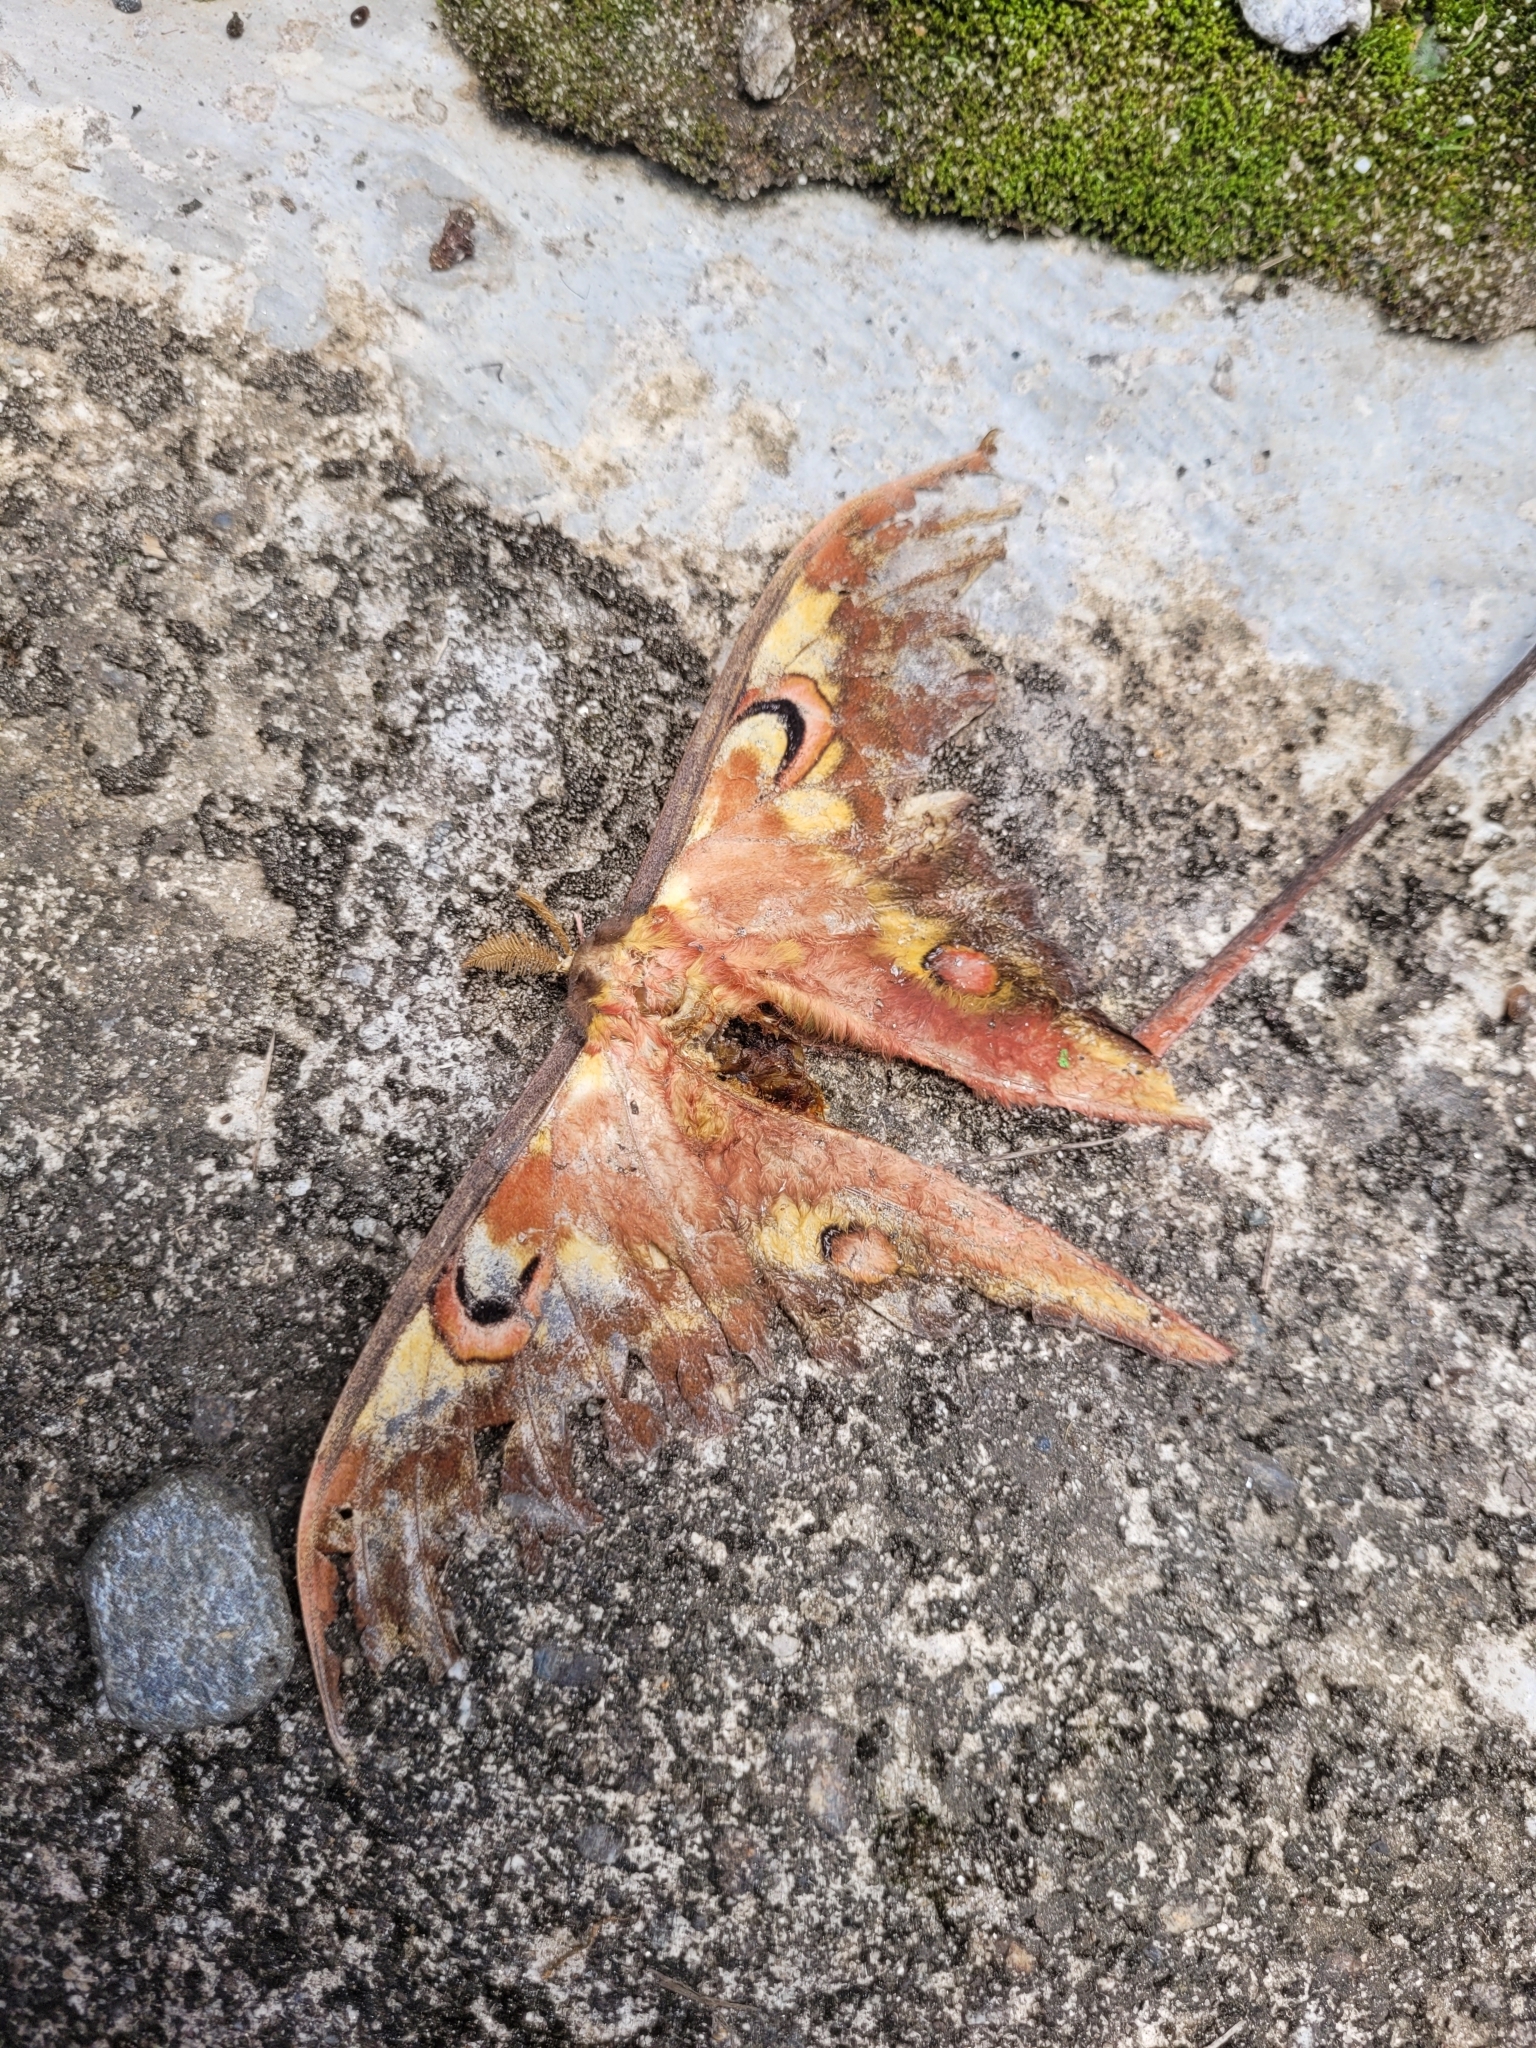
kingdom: Animalia
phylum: Arthropoda
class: Insecta
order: Lepidoptera
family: Saturniidae
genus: Actias
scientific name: Actias isis
